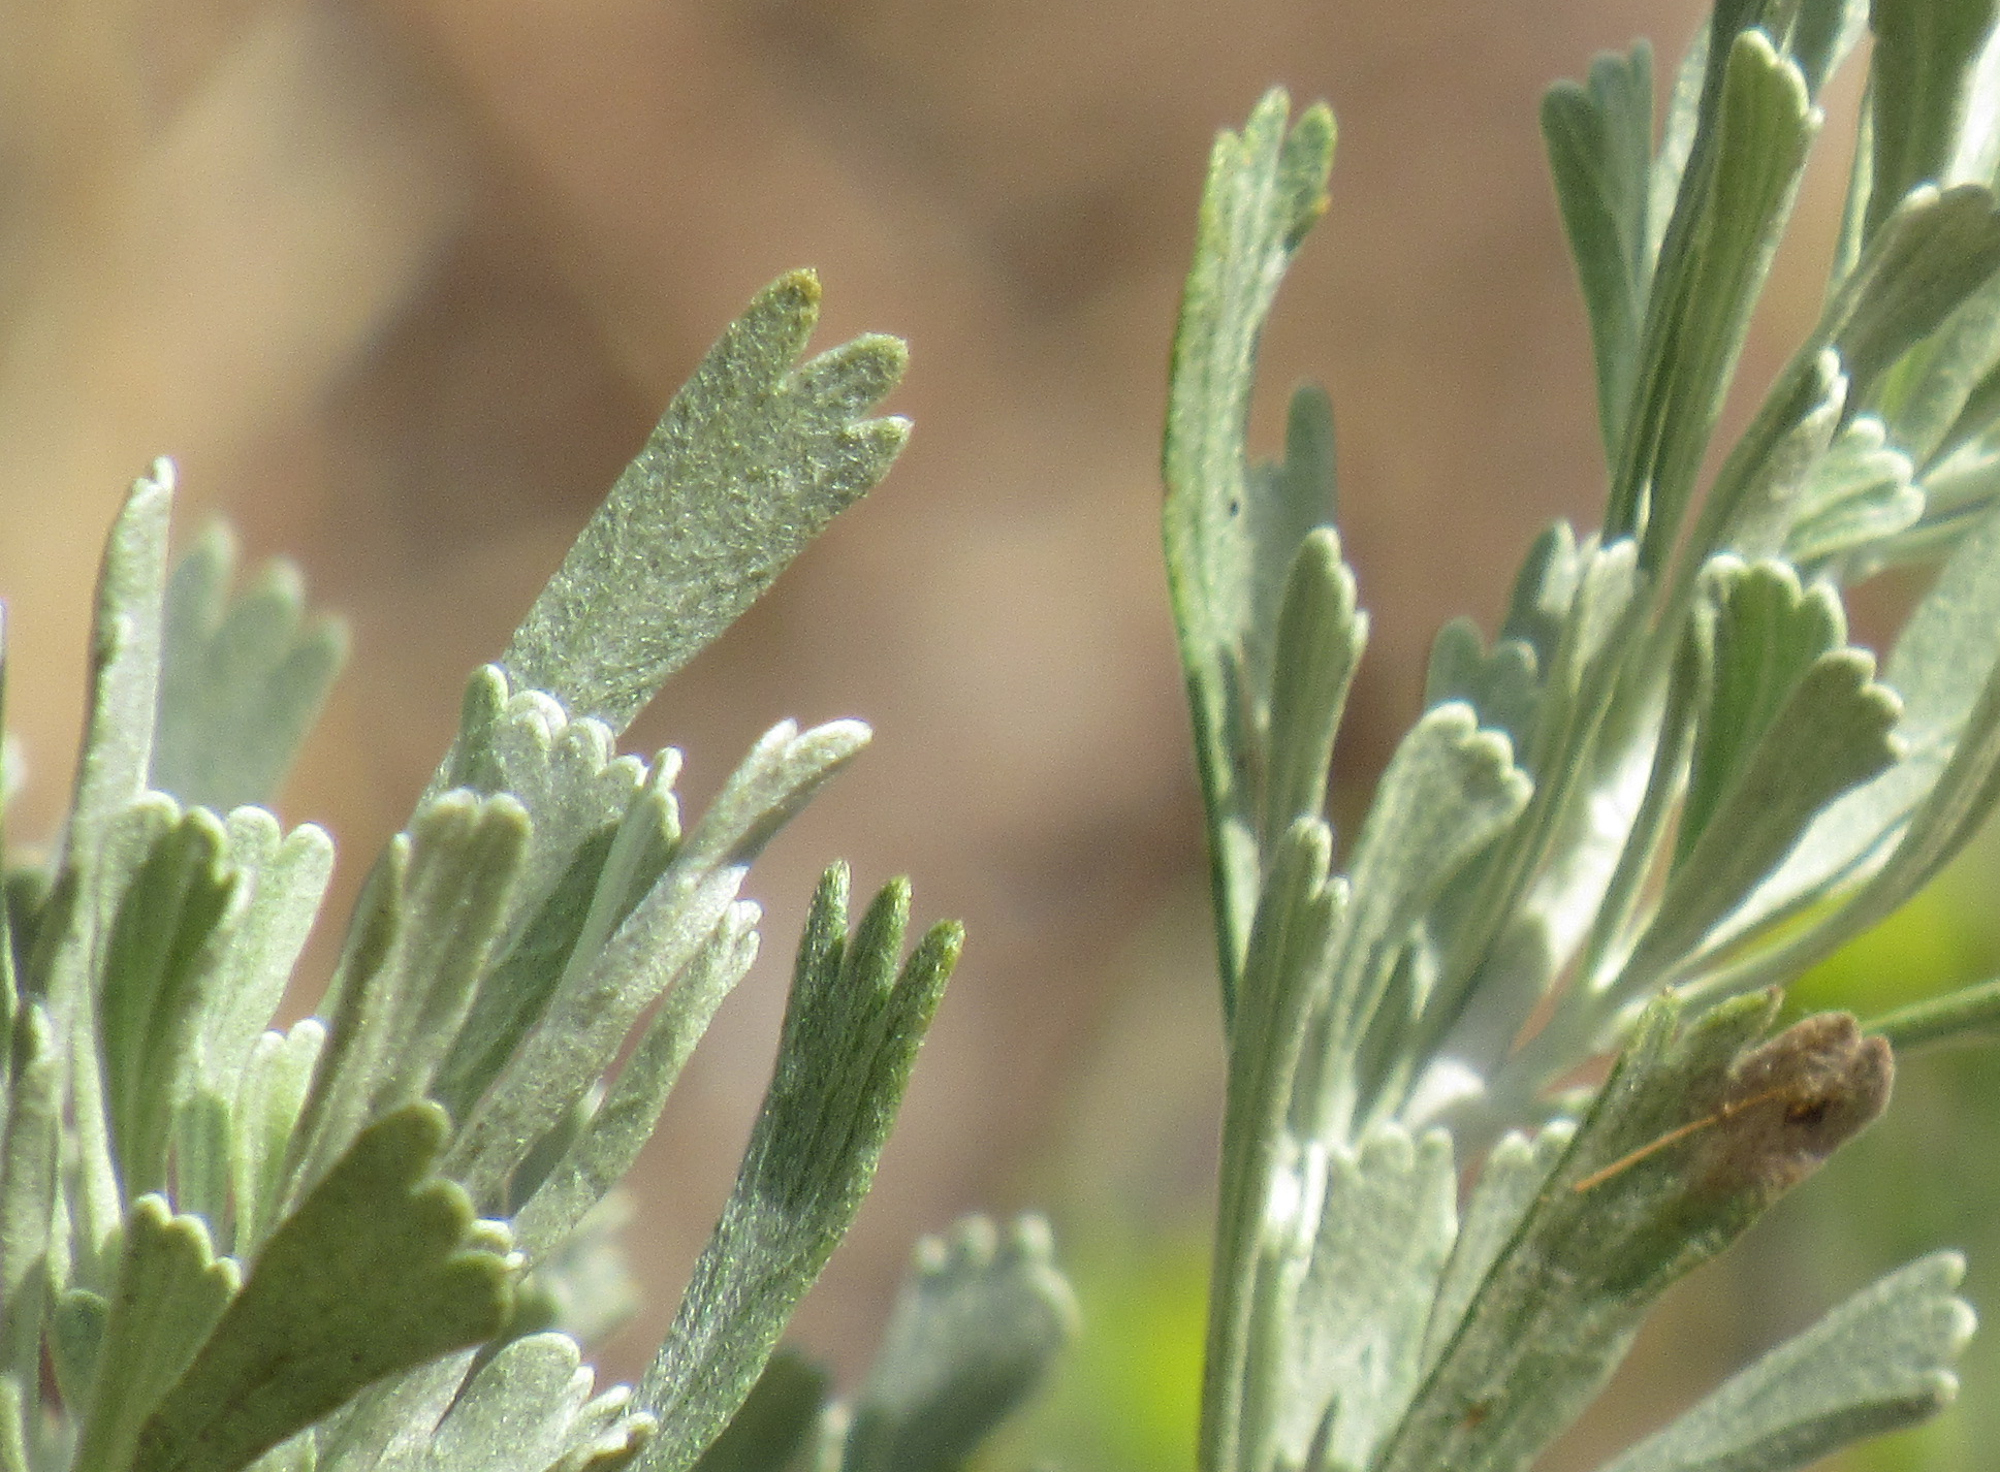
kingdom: Plantae
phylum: Tracheophyta
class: Magnoliopsida
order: Asterales
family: Asteraceae
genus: Artemisia
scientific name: Artemisia tridentata
